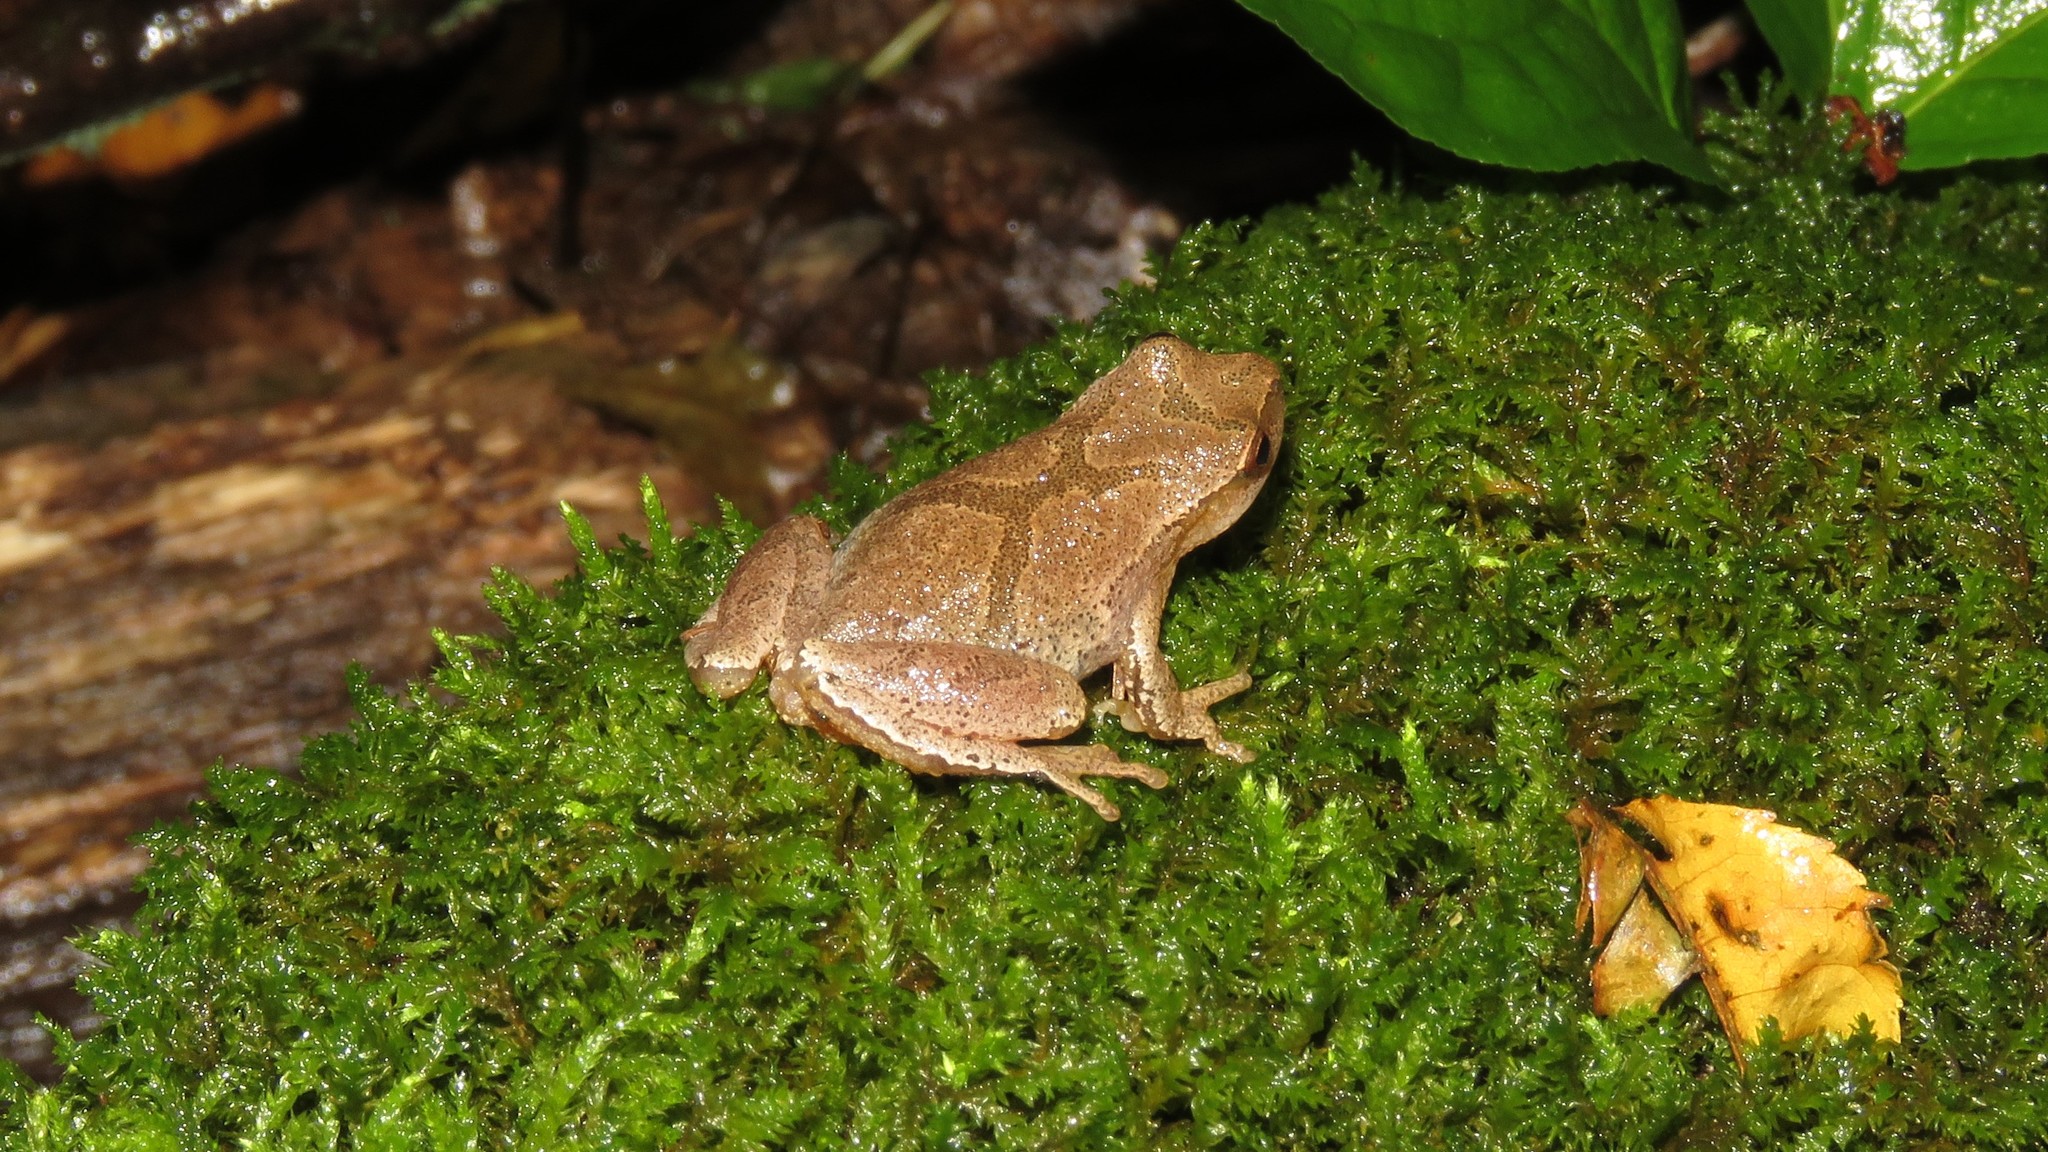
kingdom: Animalia
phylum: Chordata
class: Amphibia
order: Anura
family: Hylidae
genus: Pseudacris
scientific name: Pseudacris crucifer
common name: Spring peeper
